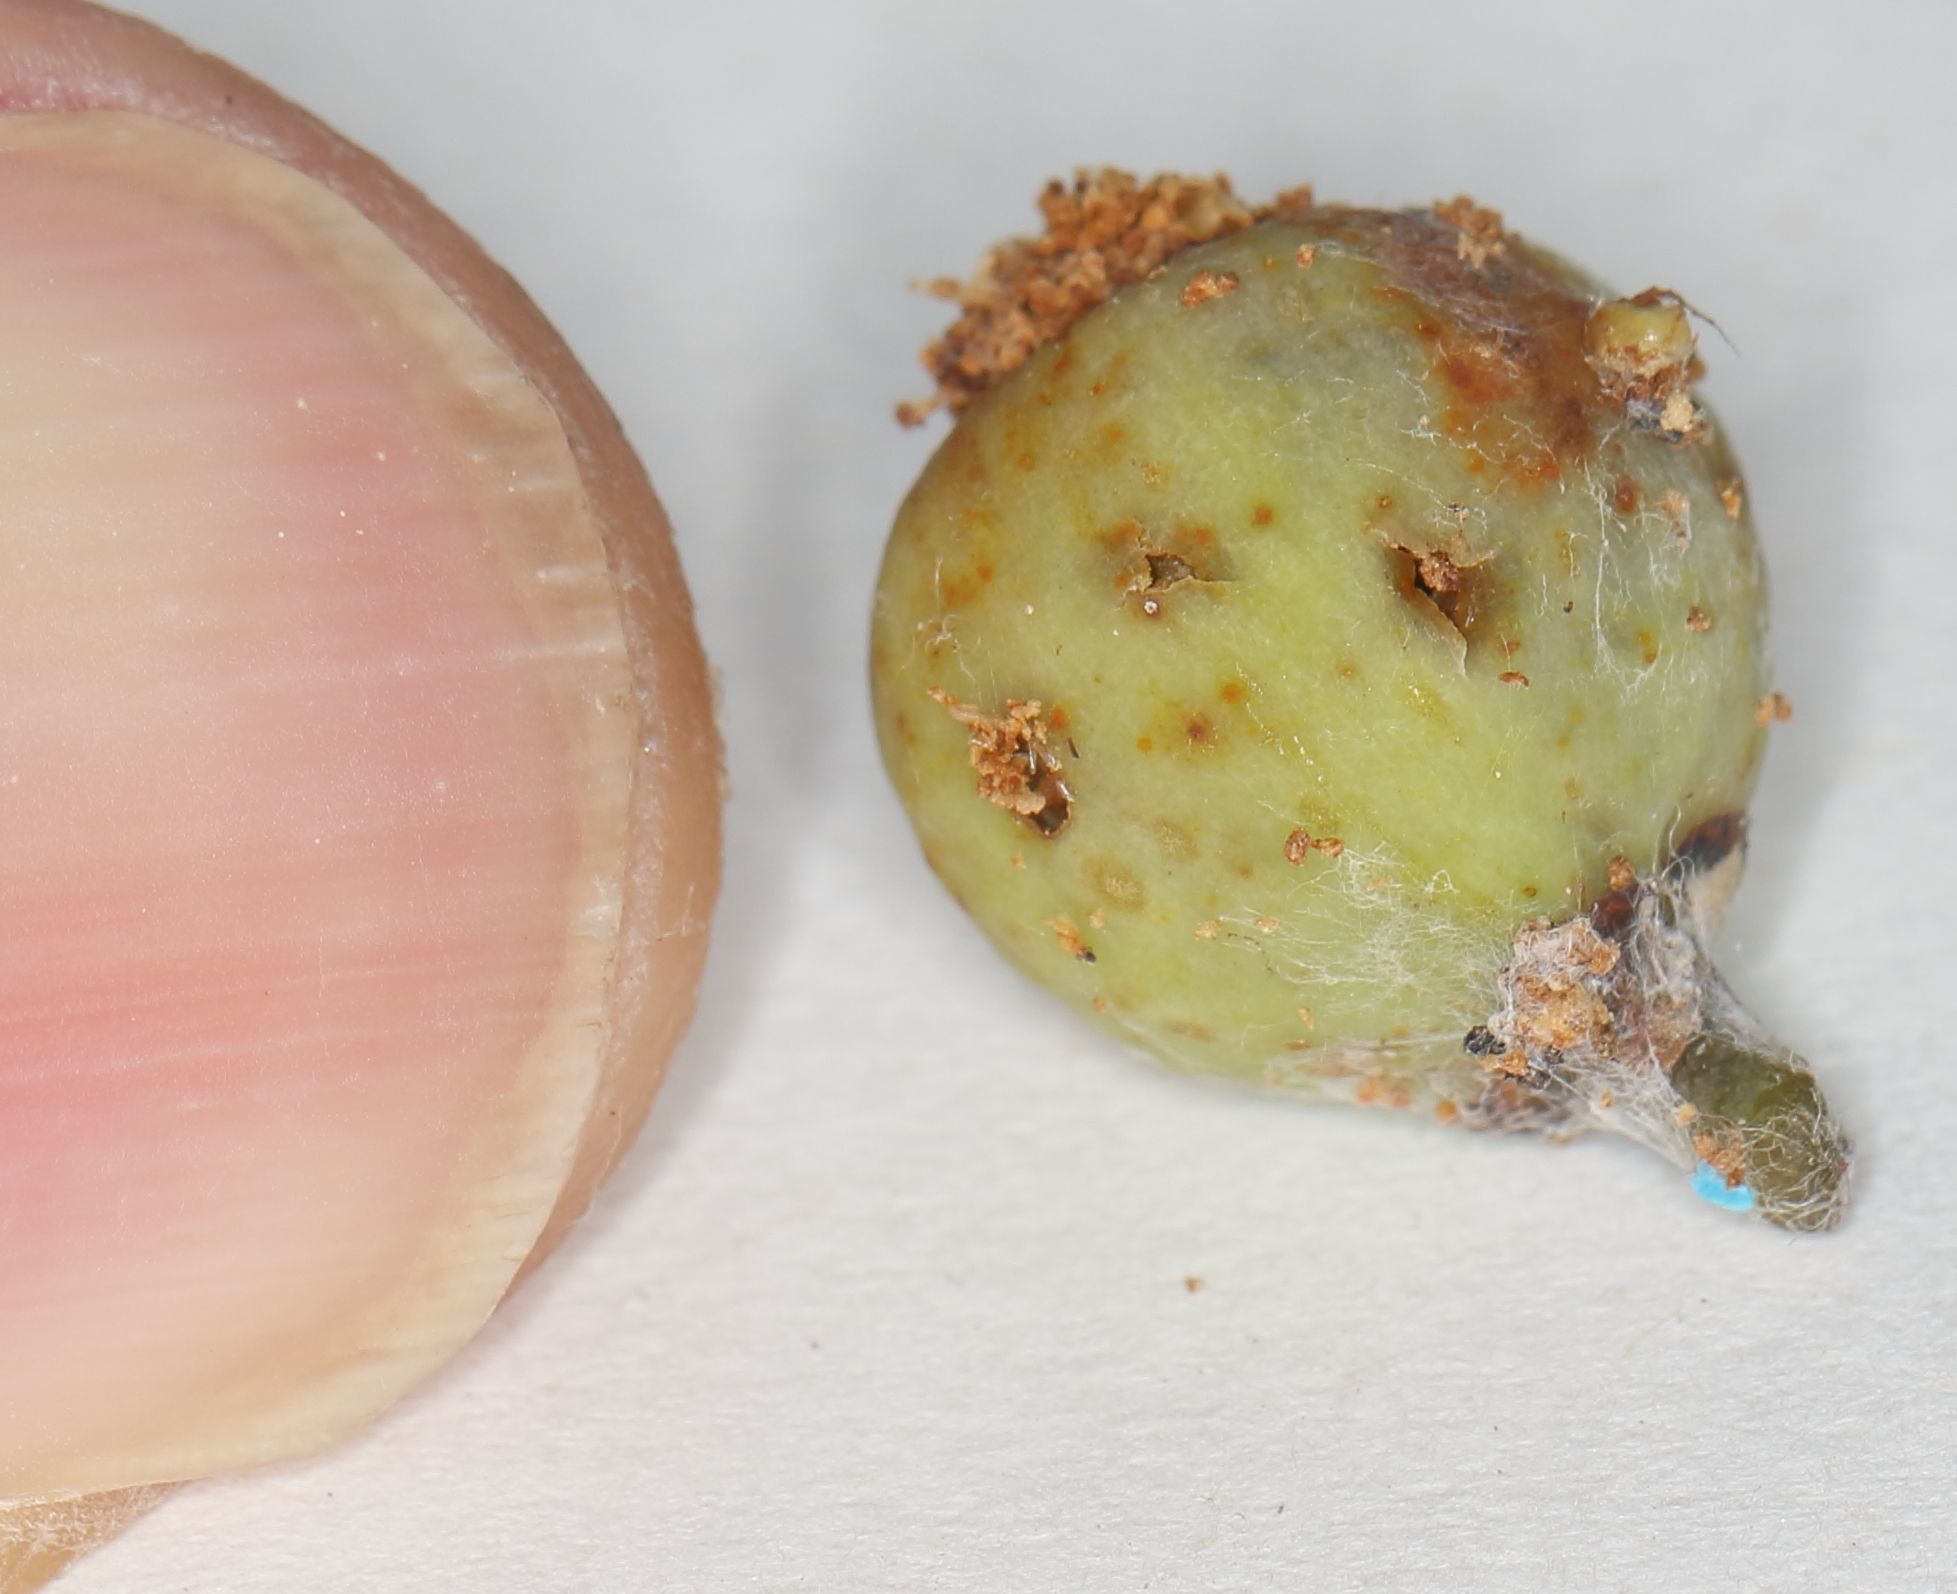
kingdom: Plantae
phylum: Tracheophyta
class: Magnoliopsida
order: Rosales
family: Moraceae
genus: Ficus
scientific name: Ficus ingens
